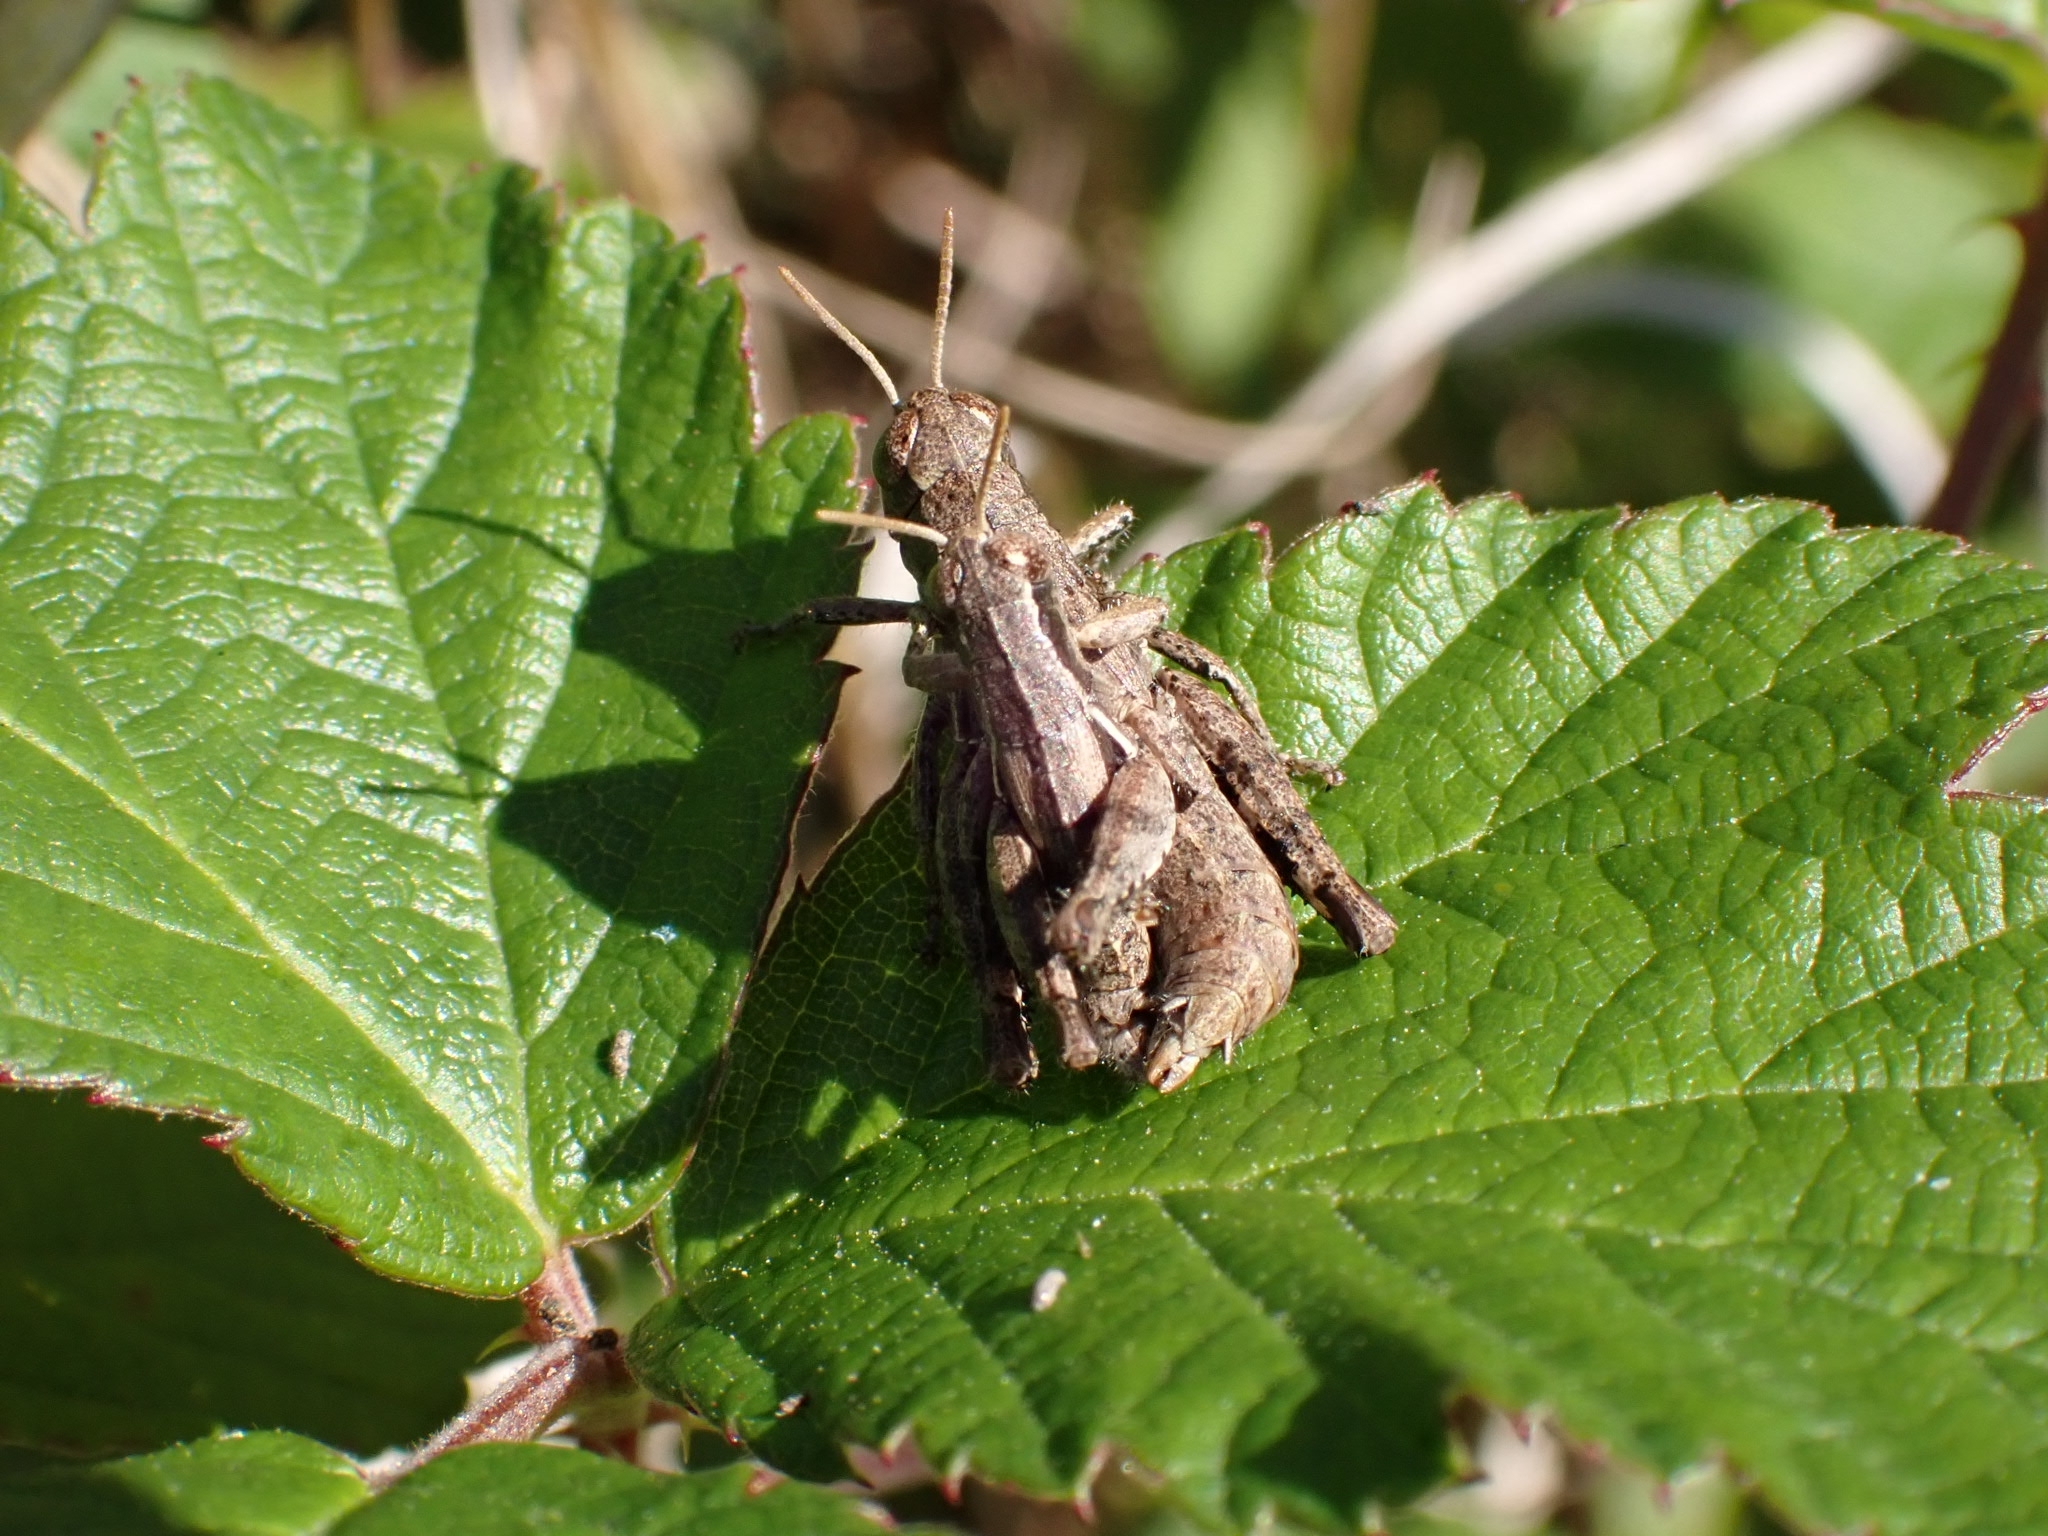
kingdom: Animalia
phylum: Arthropoda
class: Insecta
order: Orthoptera
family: Acrididae
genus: Pezotettix
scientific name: Pezotettix giornae
